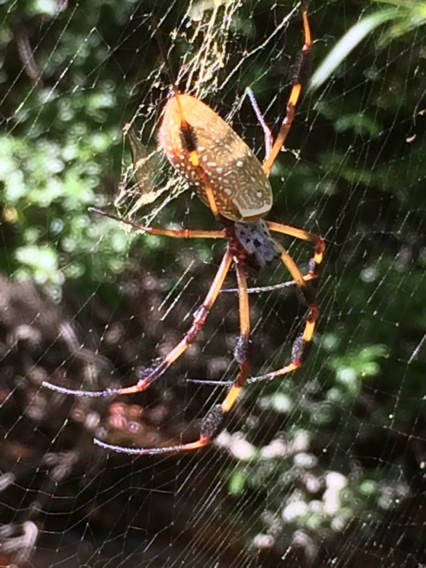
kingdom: Animalia
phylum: Arthropoda
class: Arachnida
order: Araneae
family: Araneidae
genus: Trichonephila
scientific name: Trichonephila clavipes
